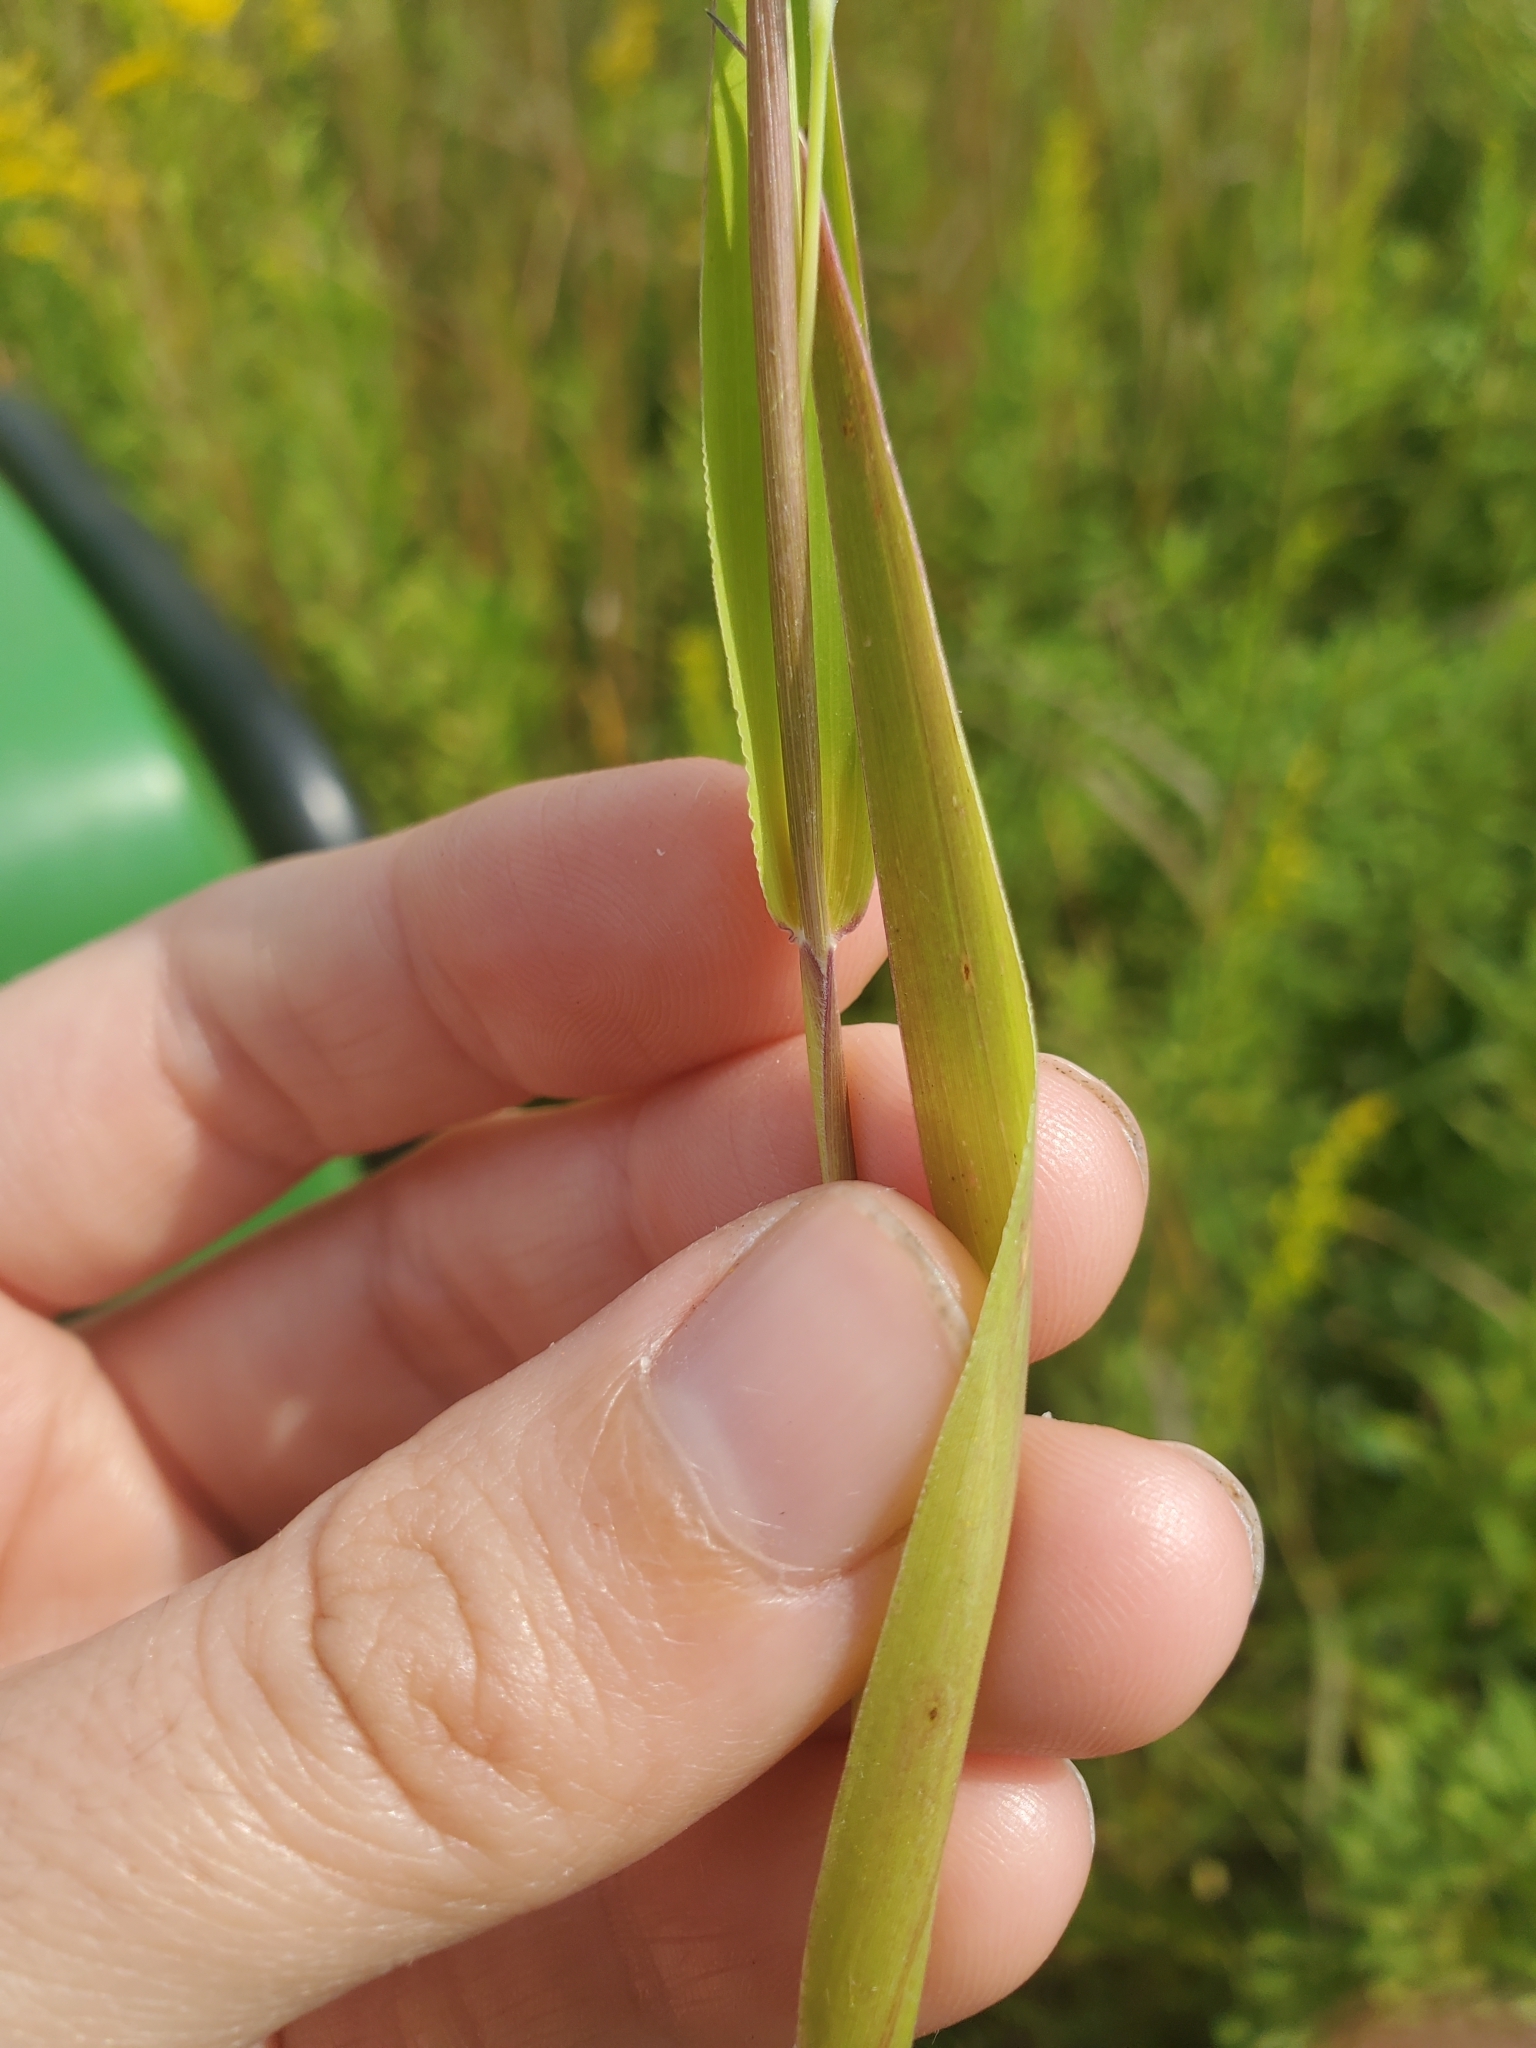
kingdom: Plantae
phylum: Tracheophyta
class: Liliopsida
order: Poales
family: Poaceae
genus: Eriochloa
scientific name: Eriochloa villosa
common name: Hairy cupgrass
